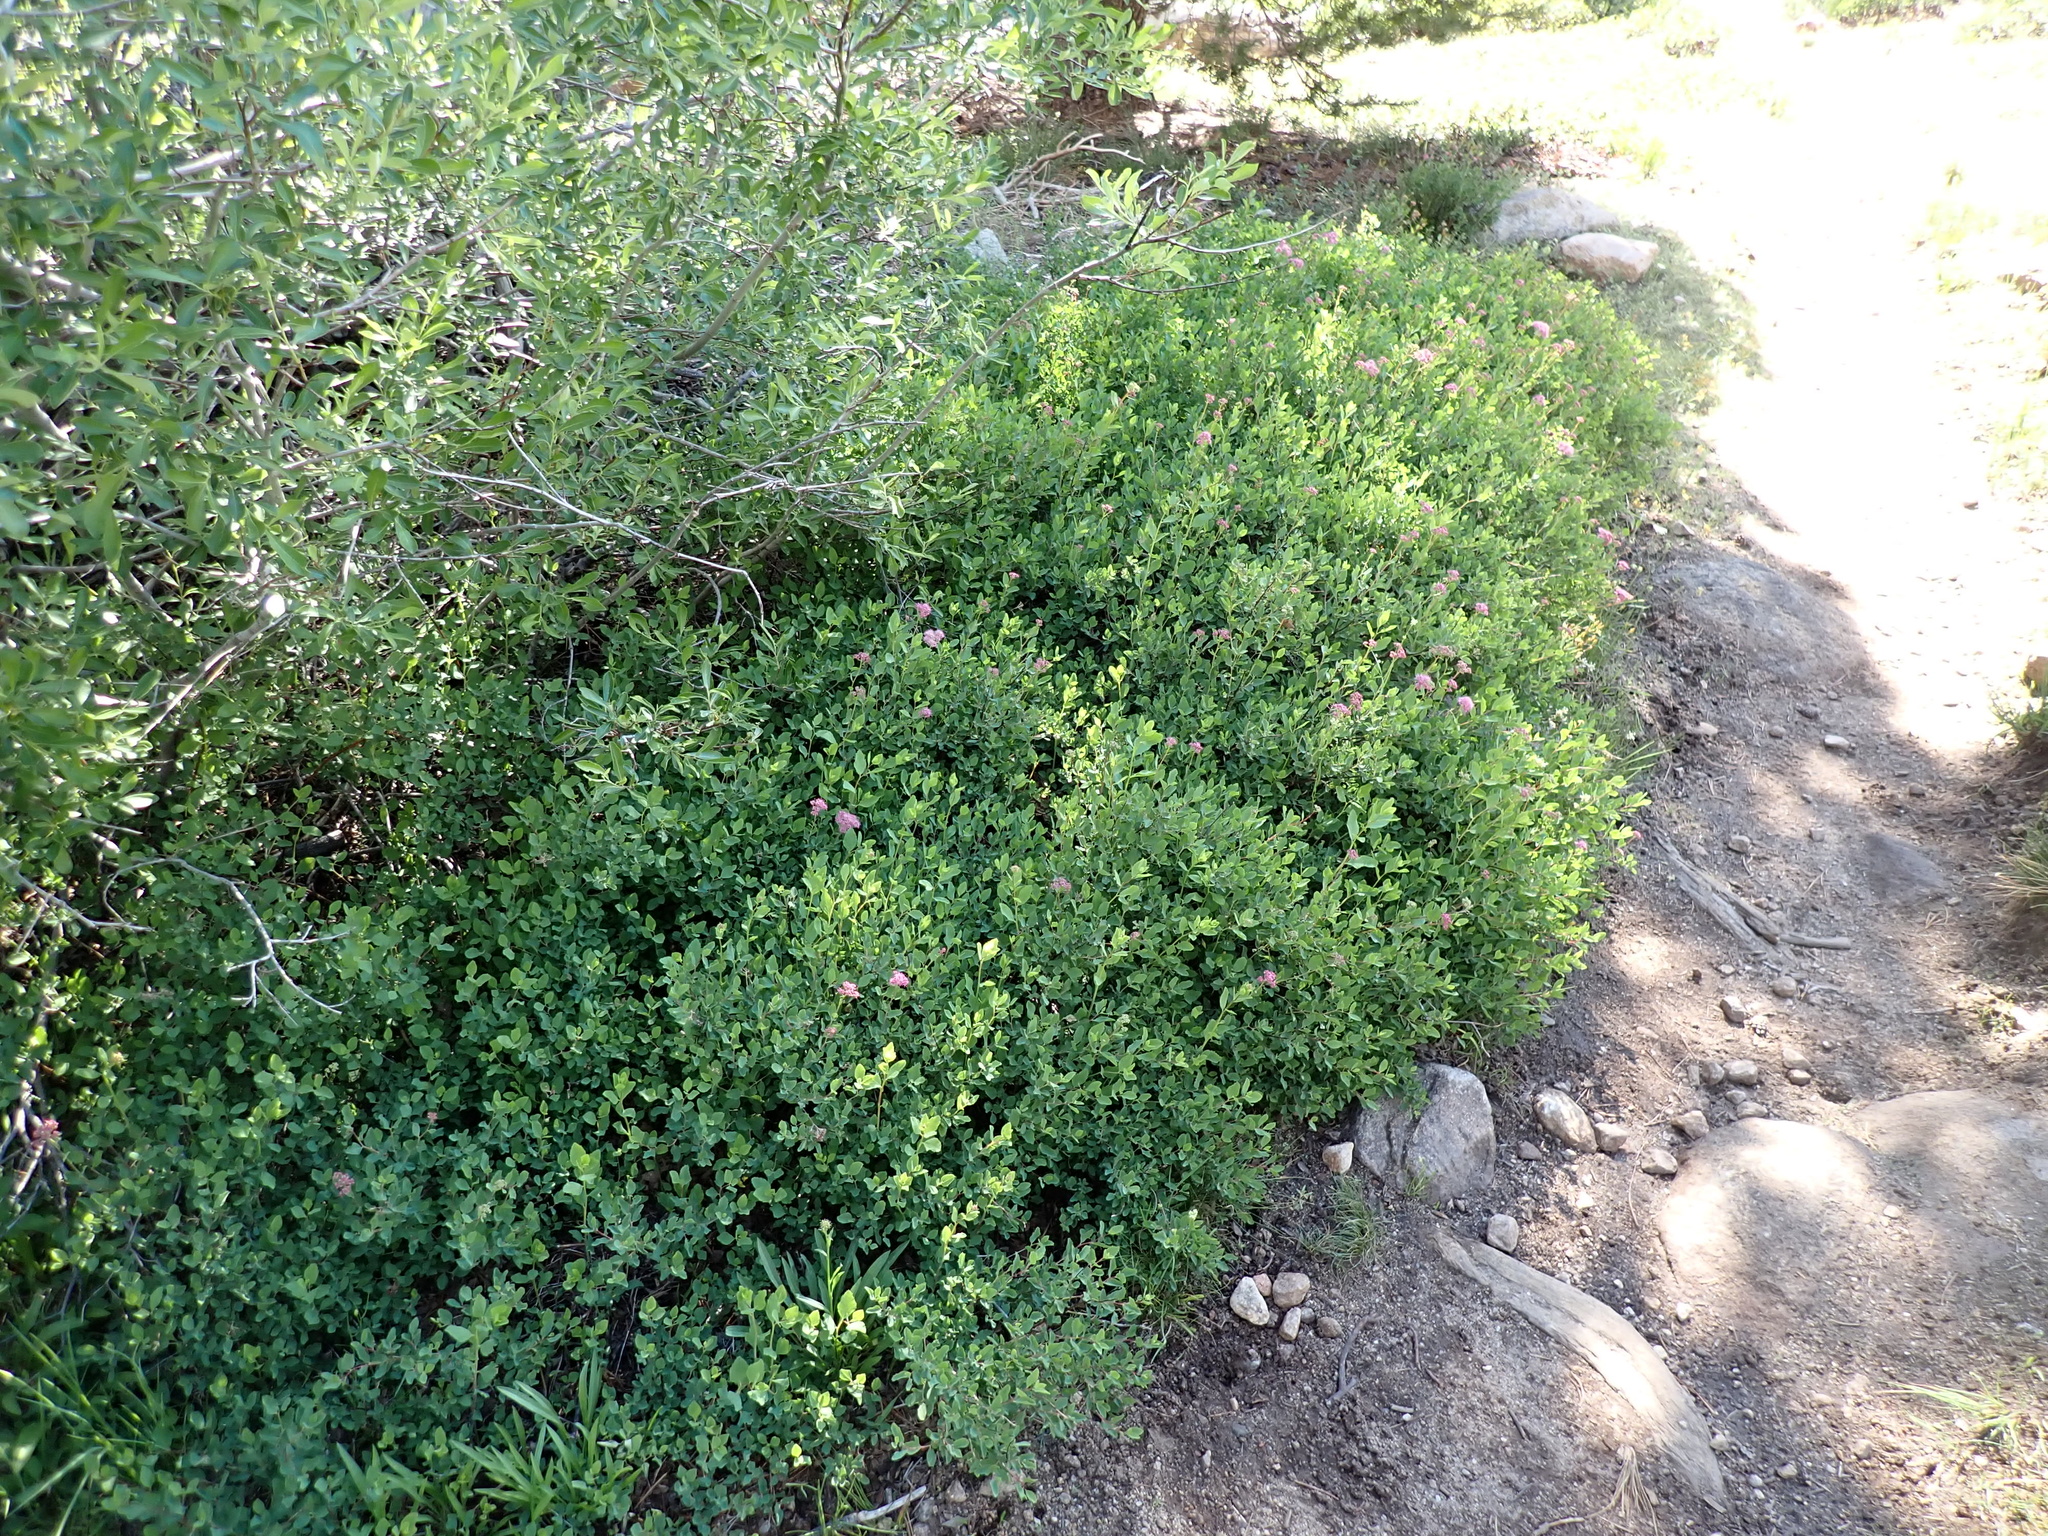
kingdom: Plantae
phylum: Tracheophyta
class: Magnoliopsida
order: Rosales
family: Rosaceae
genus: Spiraea
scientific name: Spiraea splendens
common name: Subalpine meadowsweet
